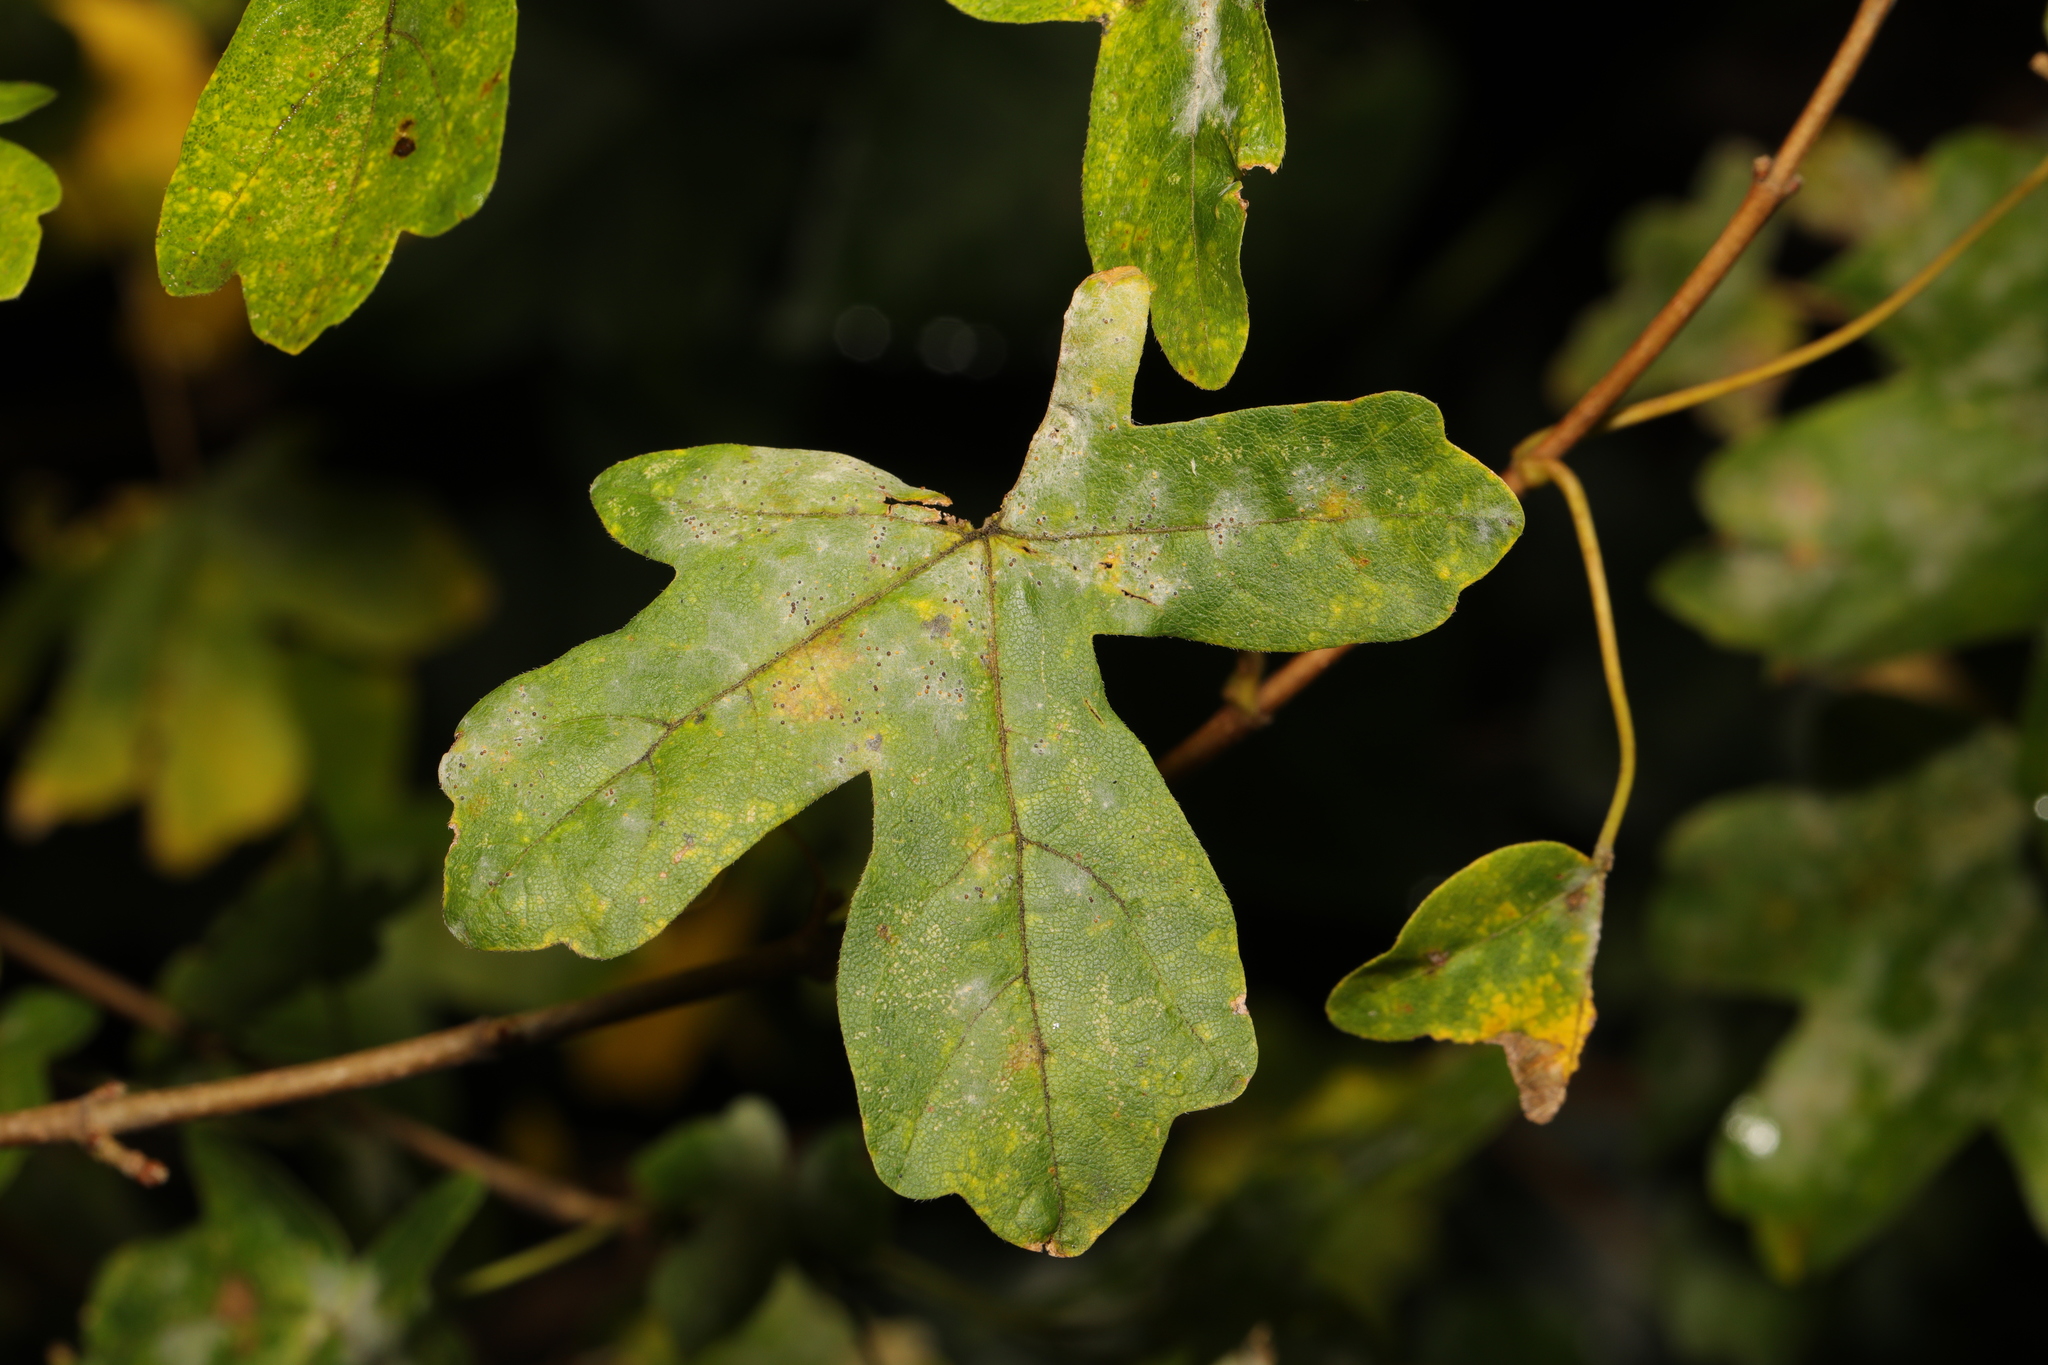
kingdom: Fungi
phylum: Ascomycota
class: Leotiomycetes
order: Helotiales
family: Erysiphaceae
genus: Sawadaea
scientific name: Sawadaea bicornis
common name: Maple mildew
